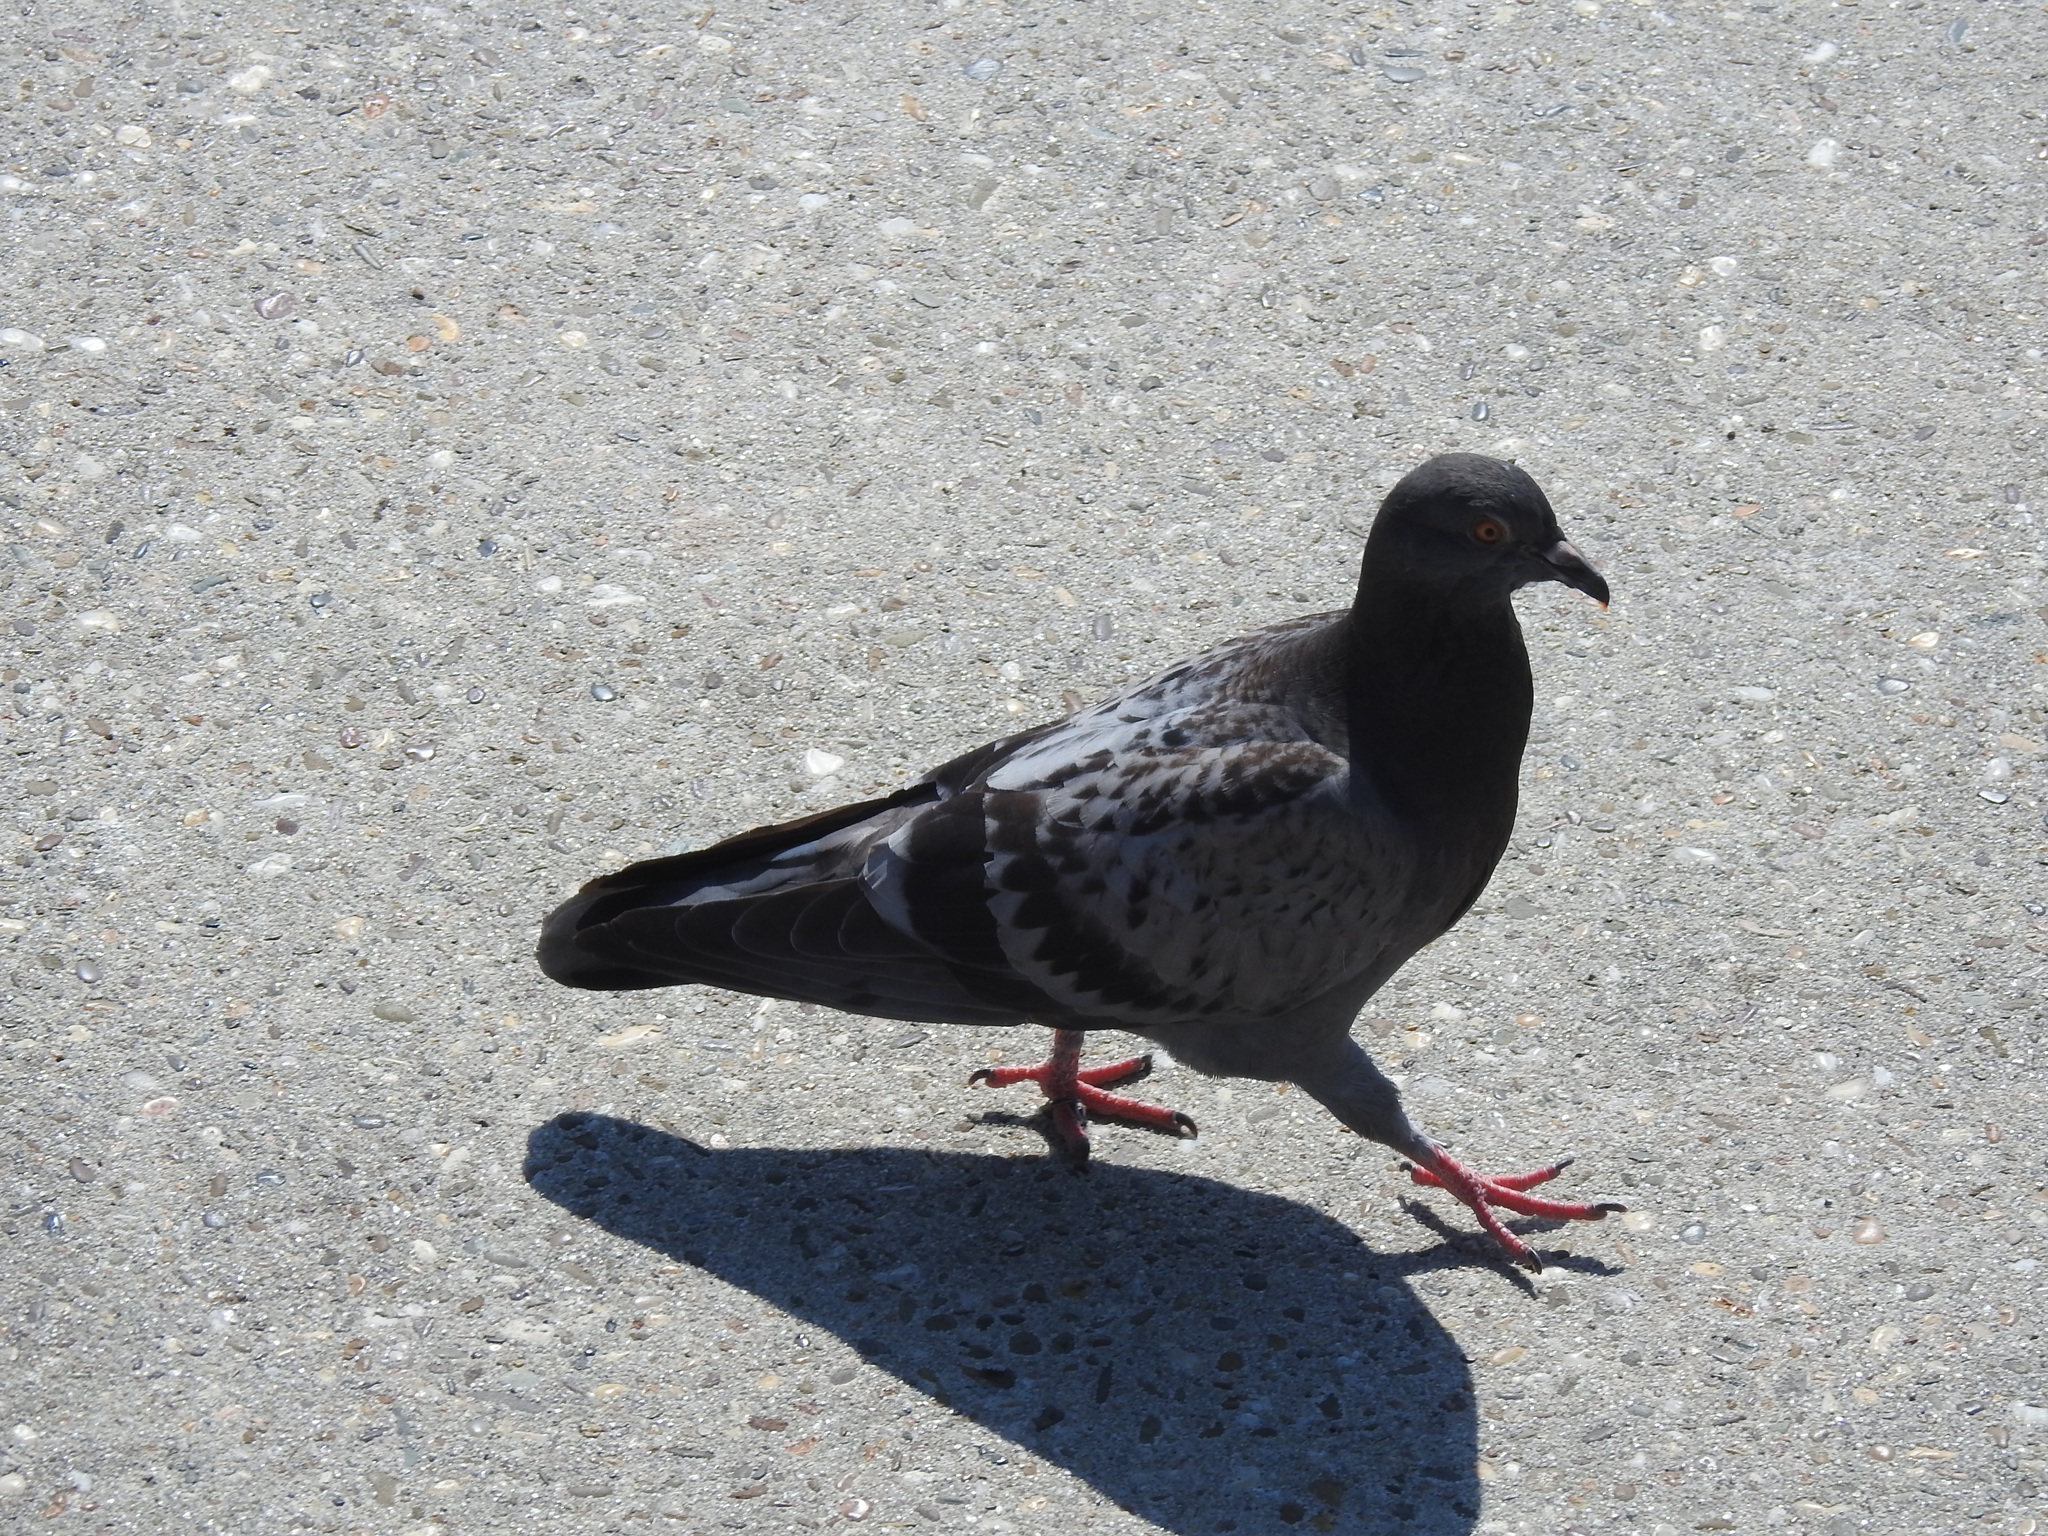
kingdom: Animalia
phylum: Chordata
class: Aves
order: Columbiformes
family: Columbidae
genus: Columba
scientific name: Columba livia
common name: Rock pigeon
